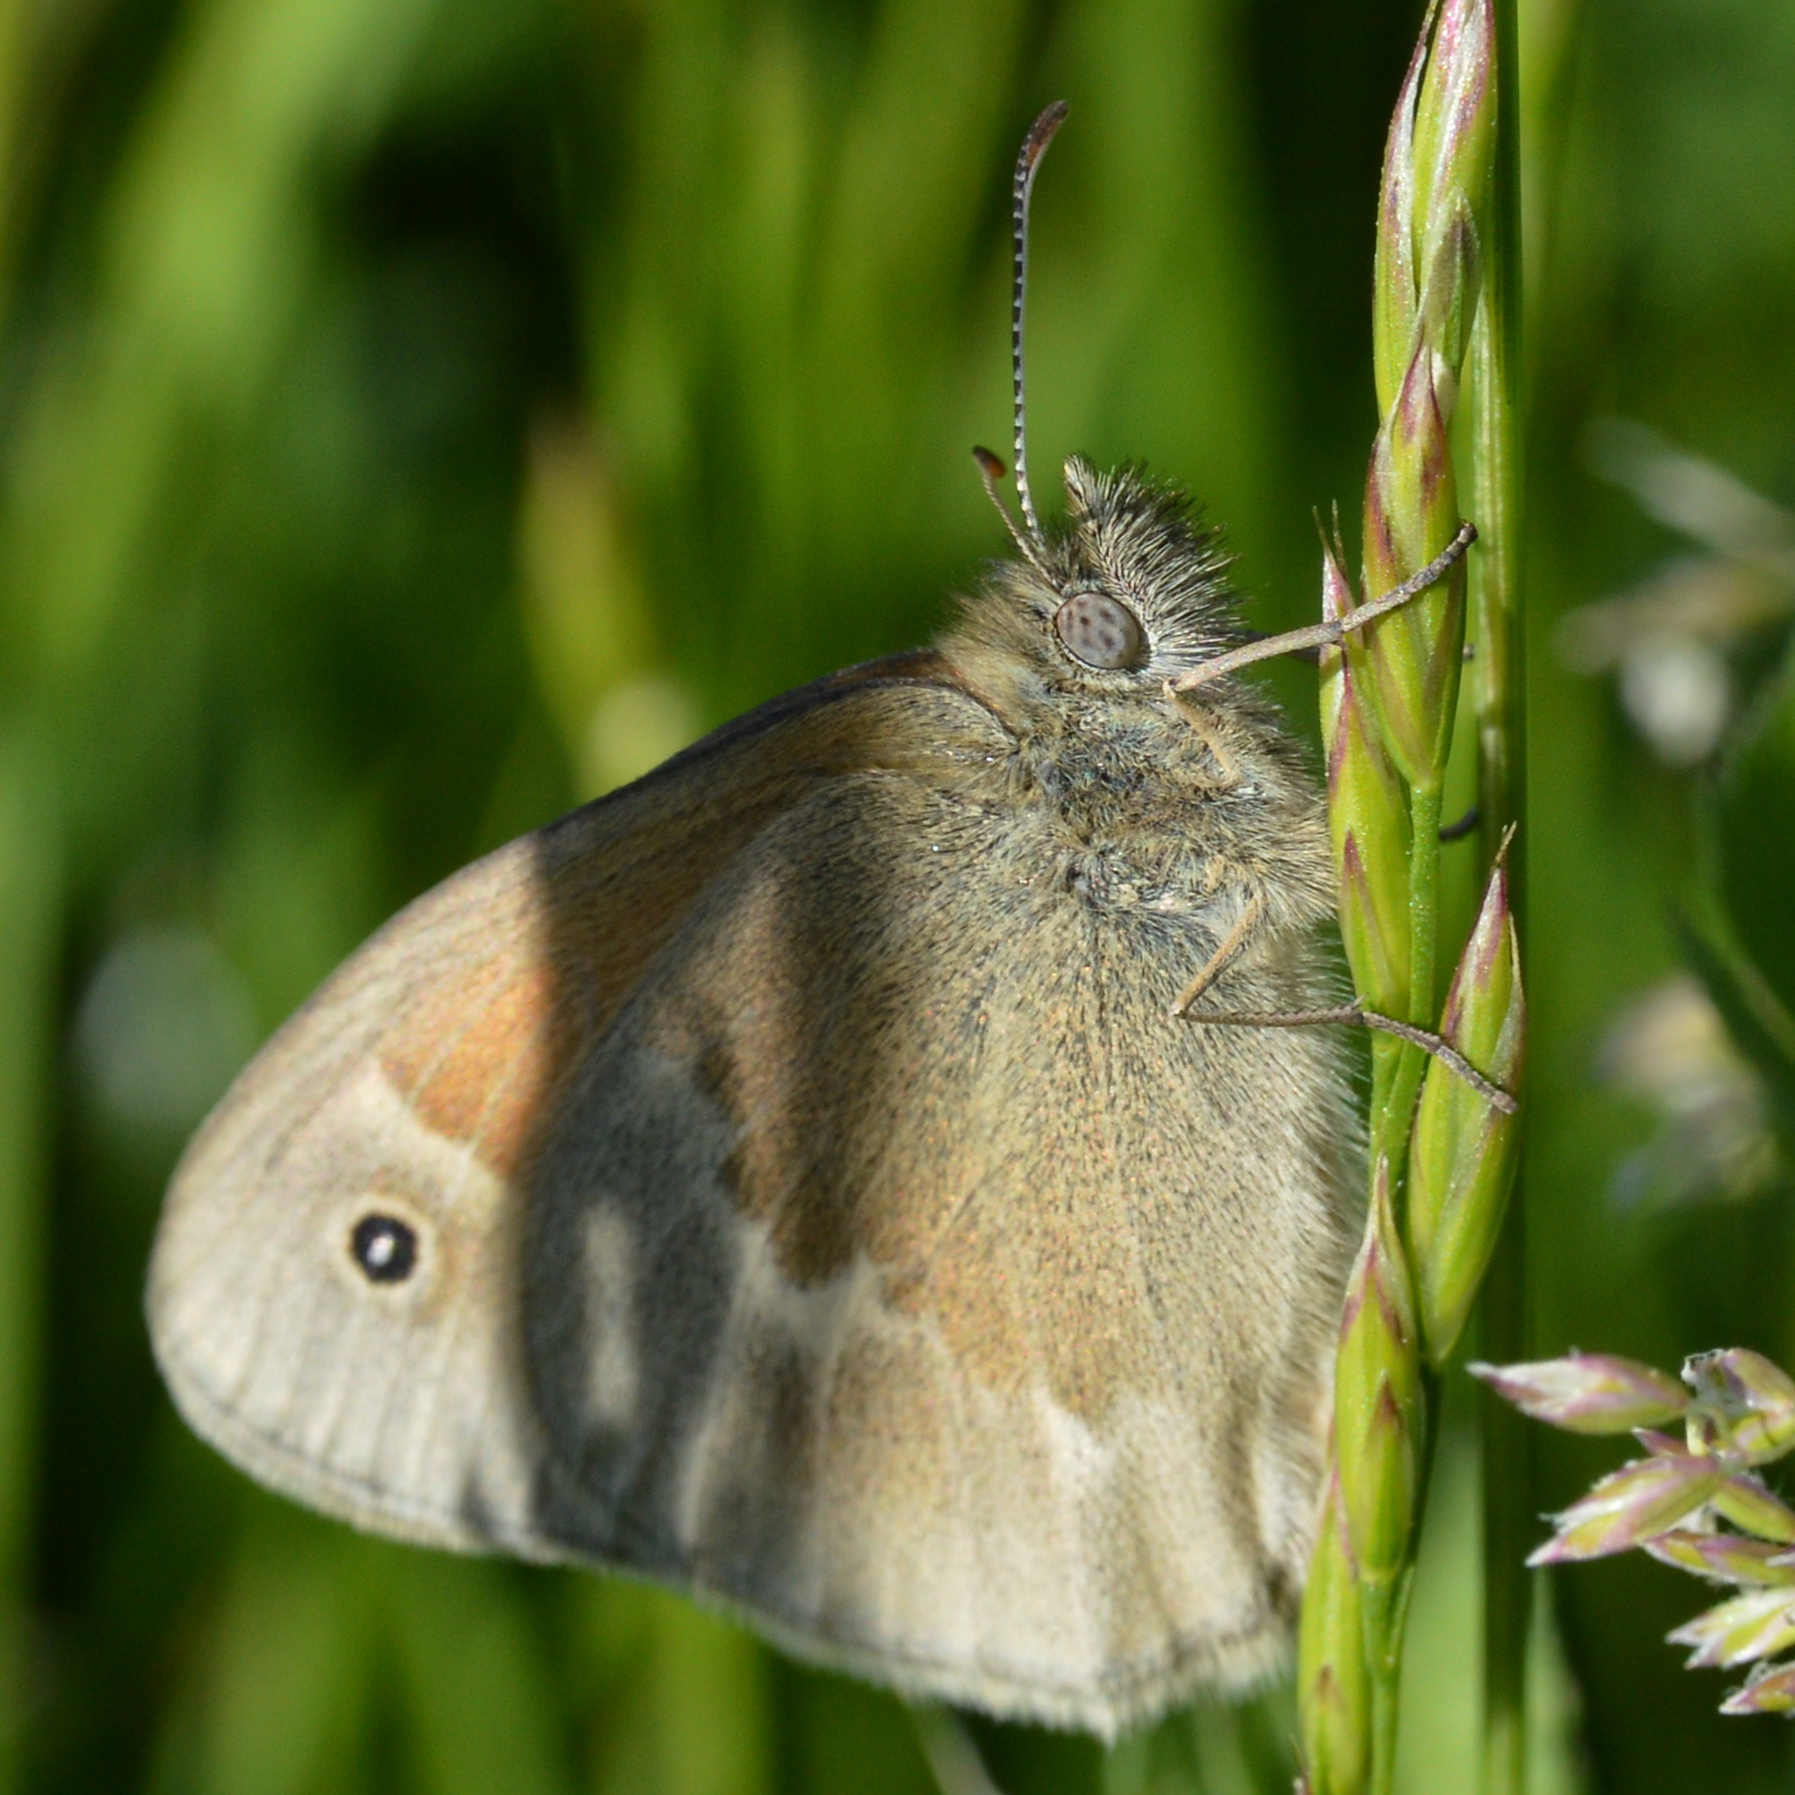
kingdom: Animalia
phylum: Arthropoda
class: Insecta
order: Lepidoptera
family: Nymphalidae
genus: Coenonympha
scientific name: Coenonympha california
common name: Common ringlet
